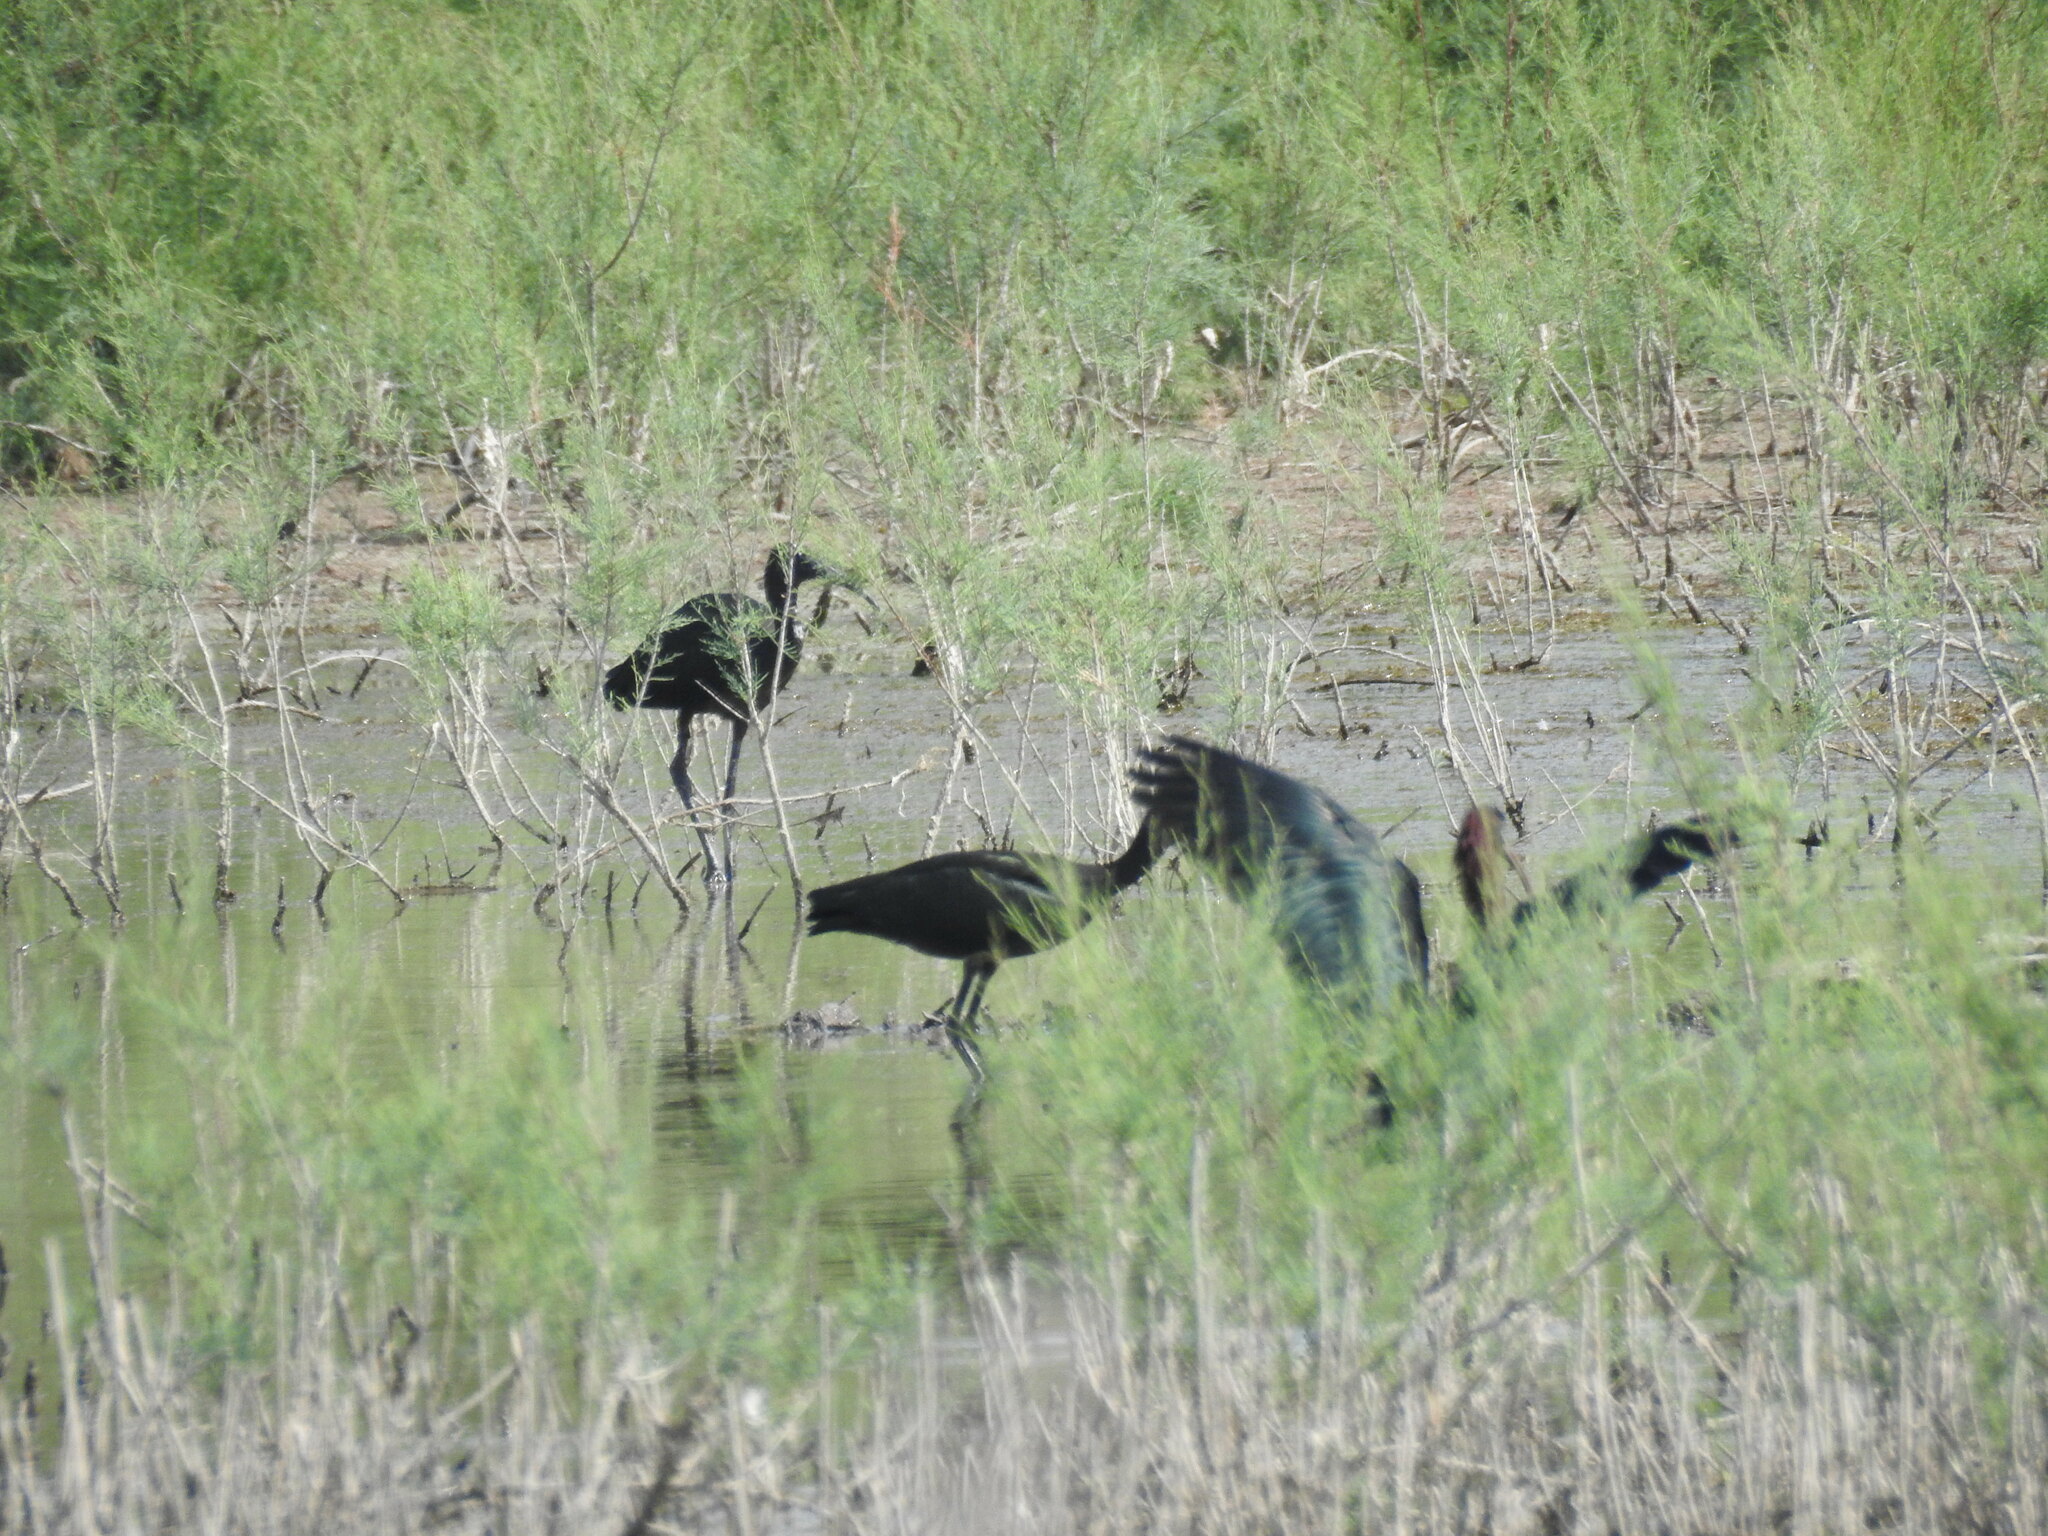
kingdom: Animalia
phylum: Chordata
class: Aves
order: Pelecaniformes
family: Threskiornithidae
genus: Plegadis
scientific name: Plegadis falcinellus
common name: Glossy ibis
